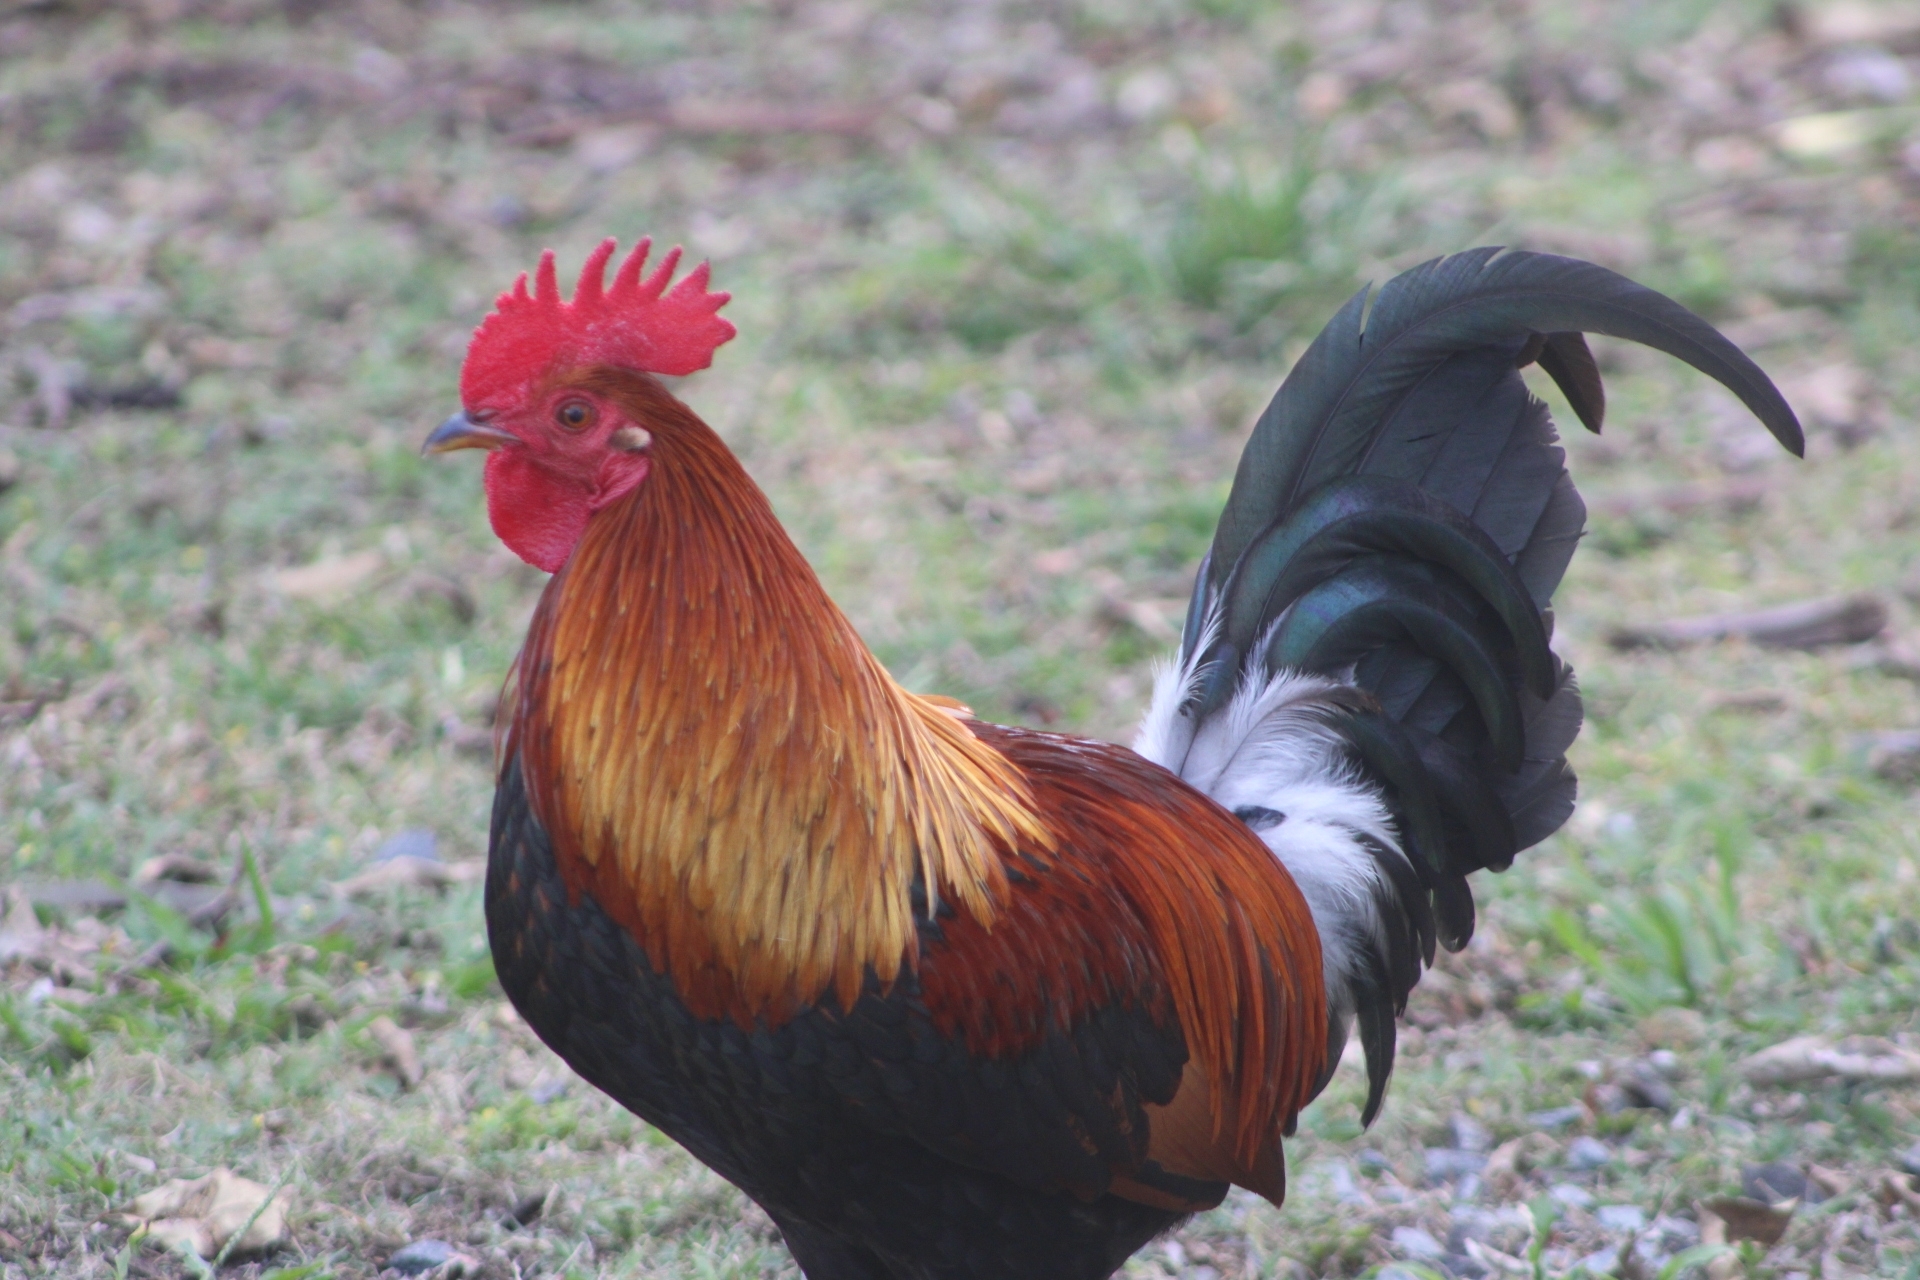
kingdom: Animalia
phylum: Chordata
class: Aves
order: Galliformes
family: Phasianidae
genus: Gallus
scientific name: Gallus gallus
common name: Red junglefowl
